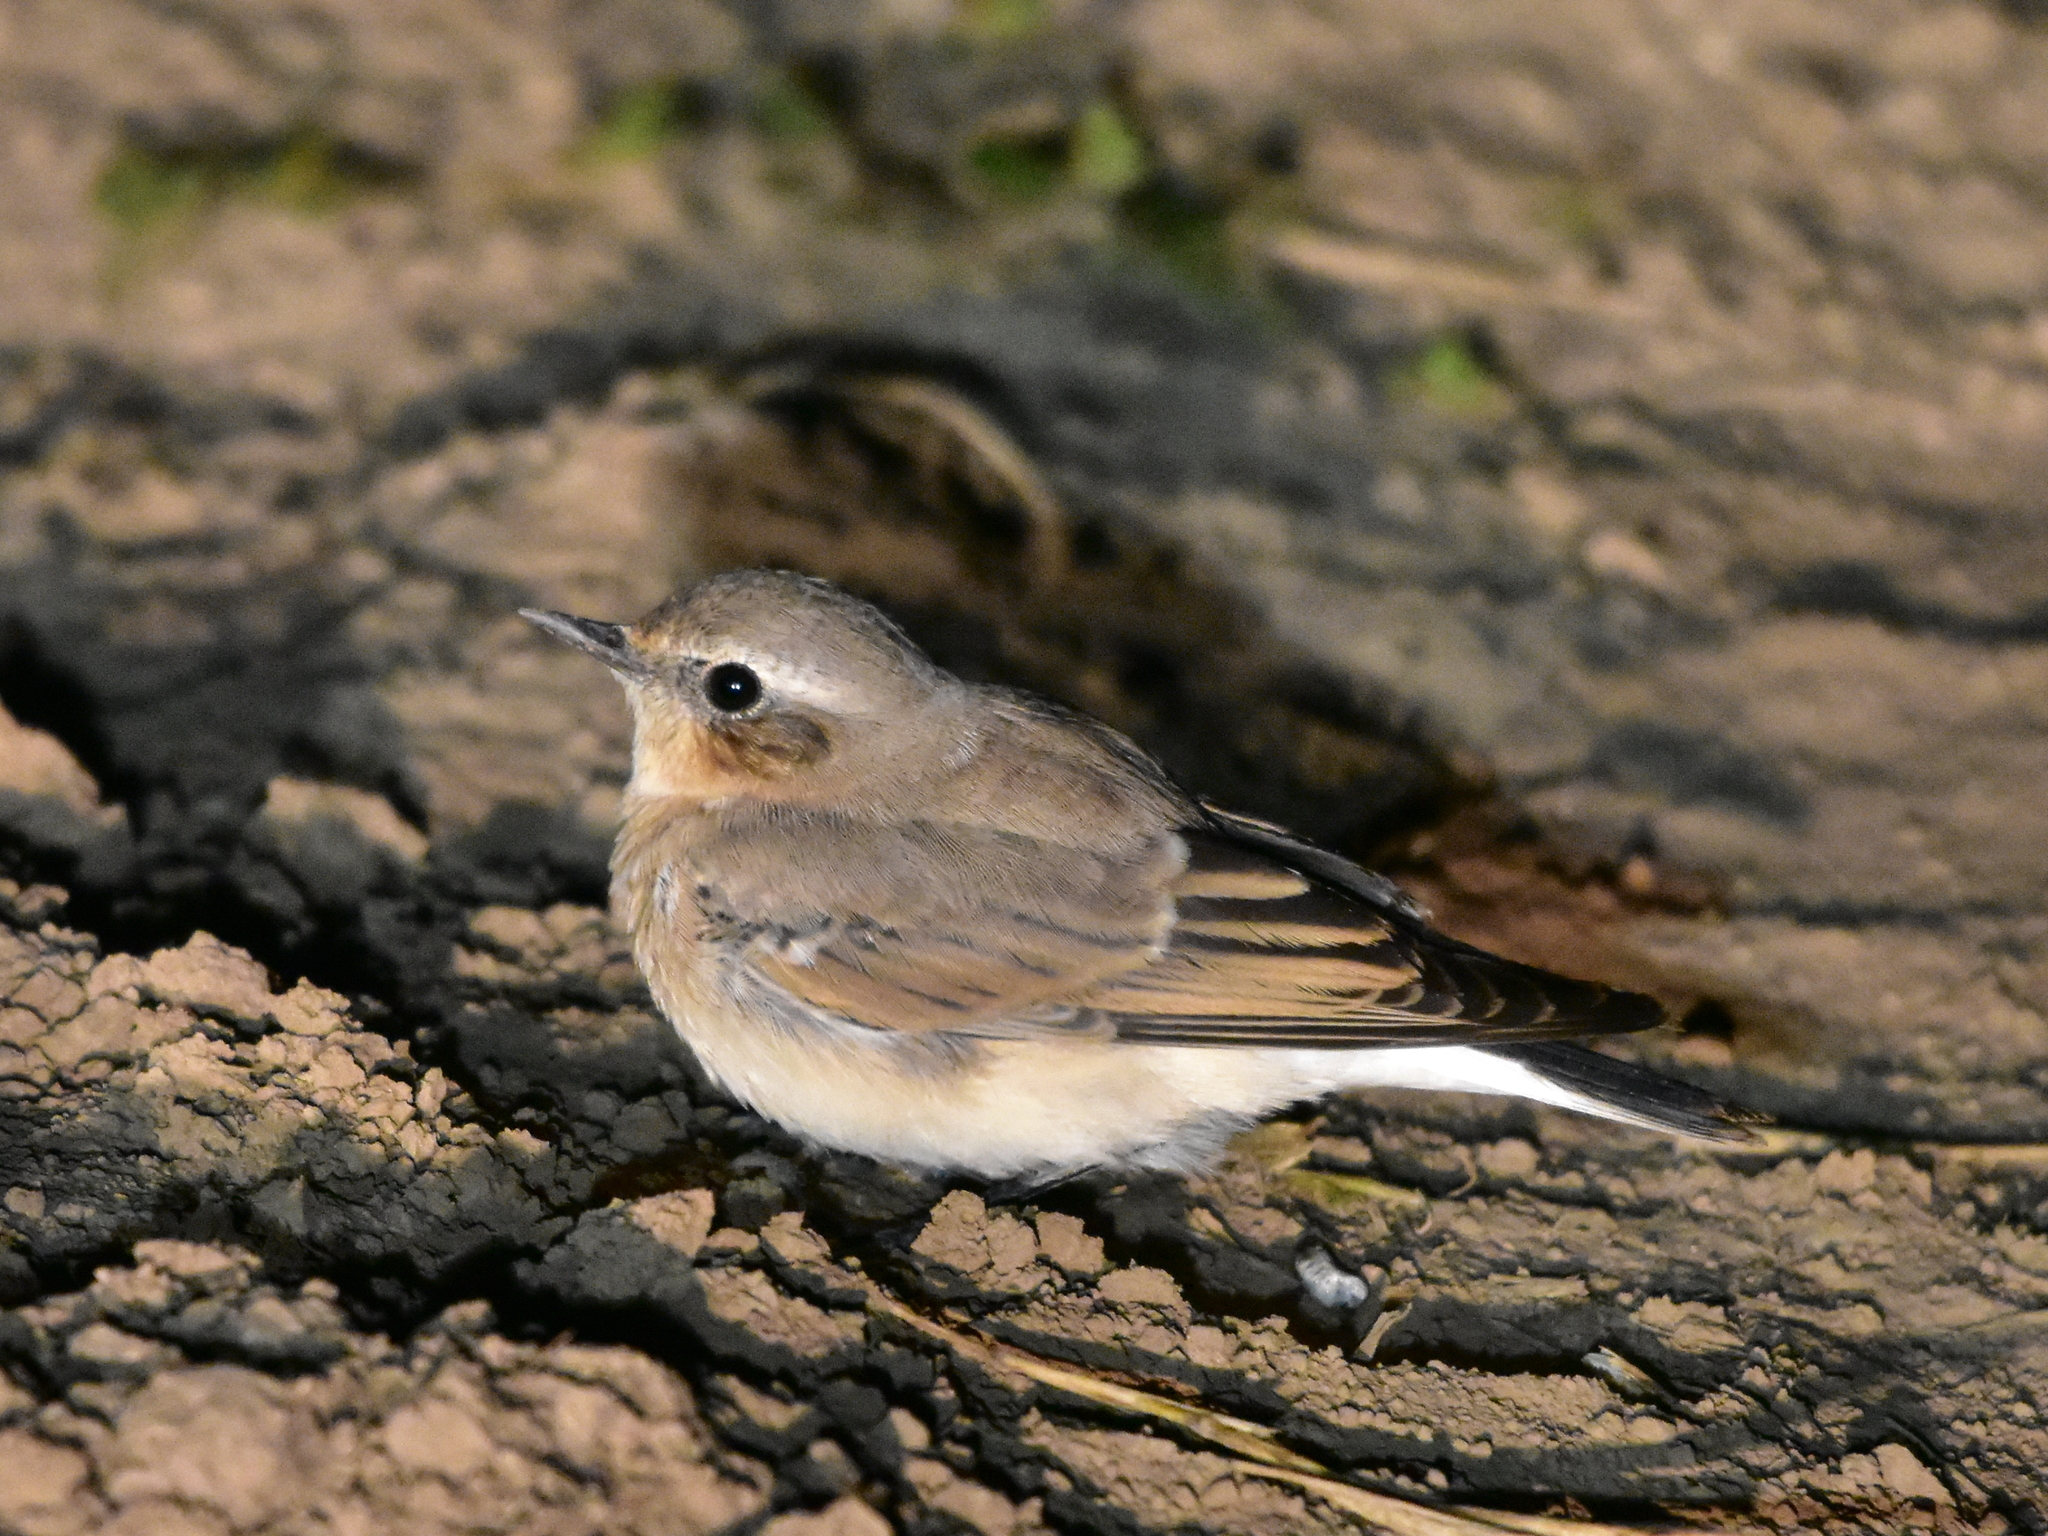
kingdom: Animalia
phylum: Chordata
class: Aves
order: Passeriformes
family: Muscicapidae
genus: Oenanthe
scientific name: Oenanthe oenanthe
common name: Northern wheatear
